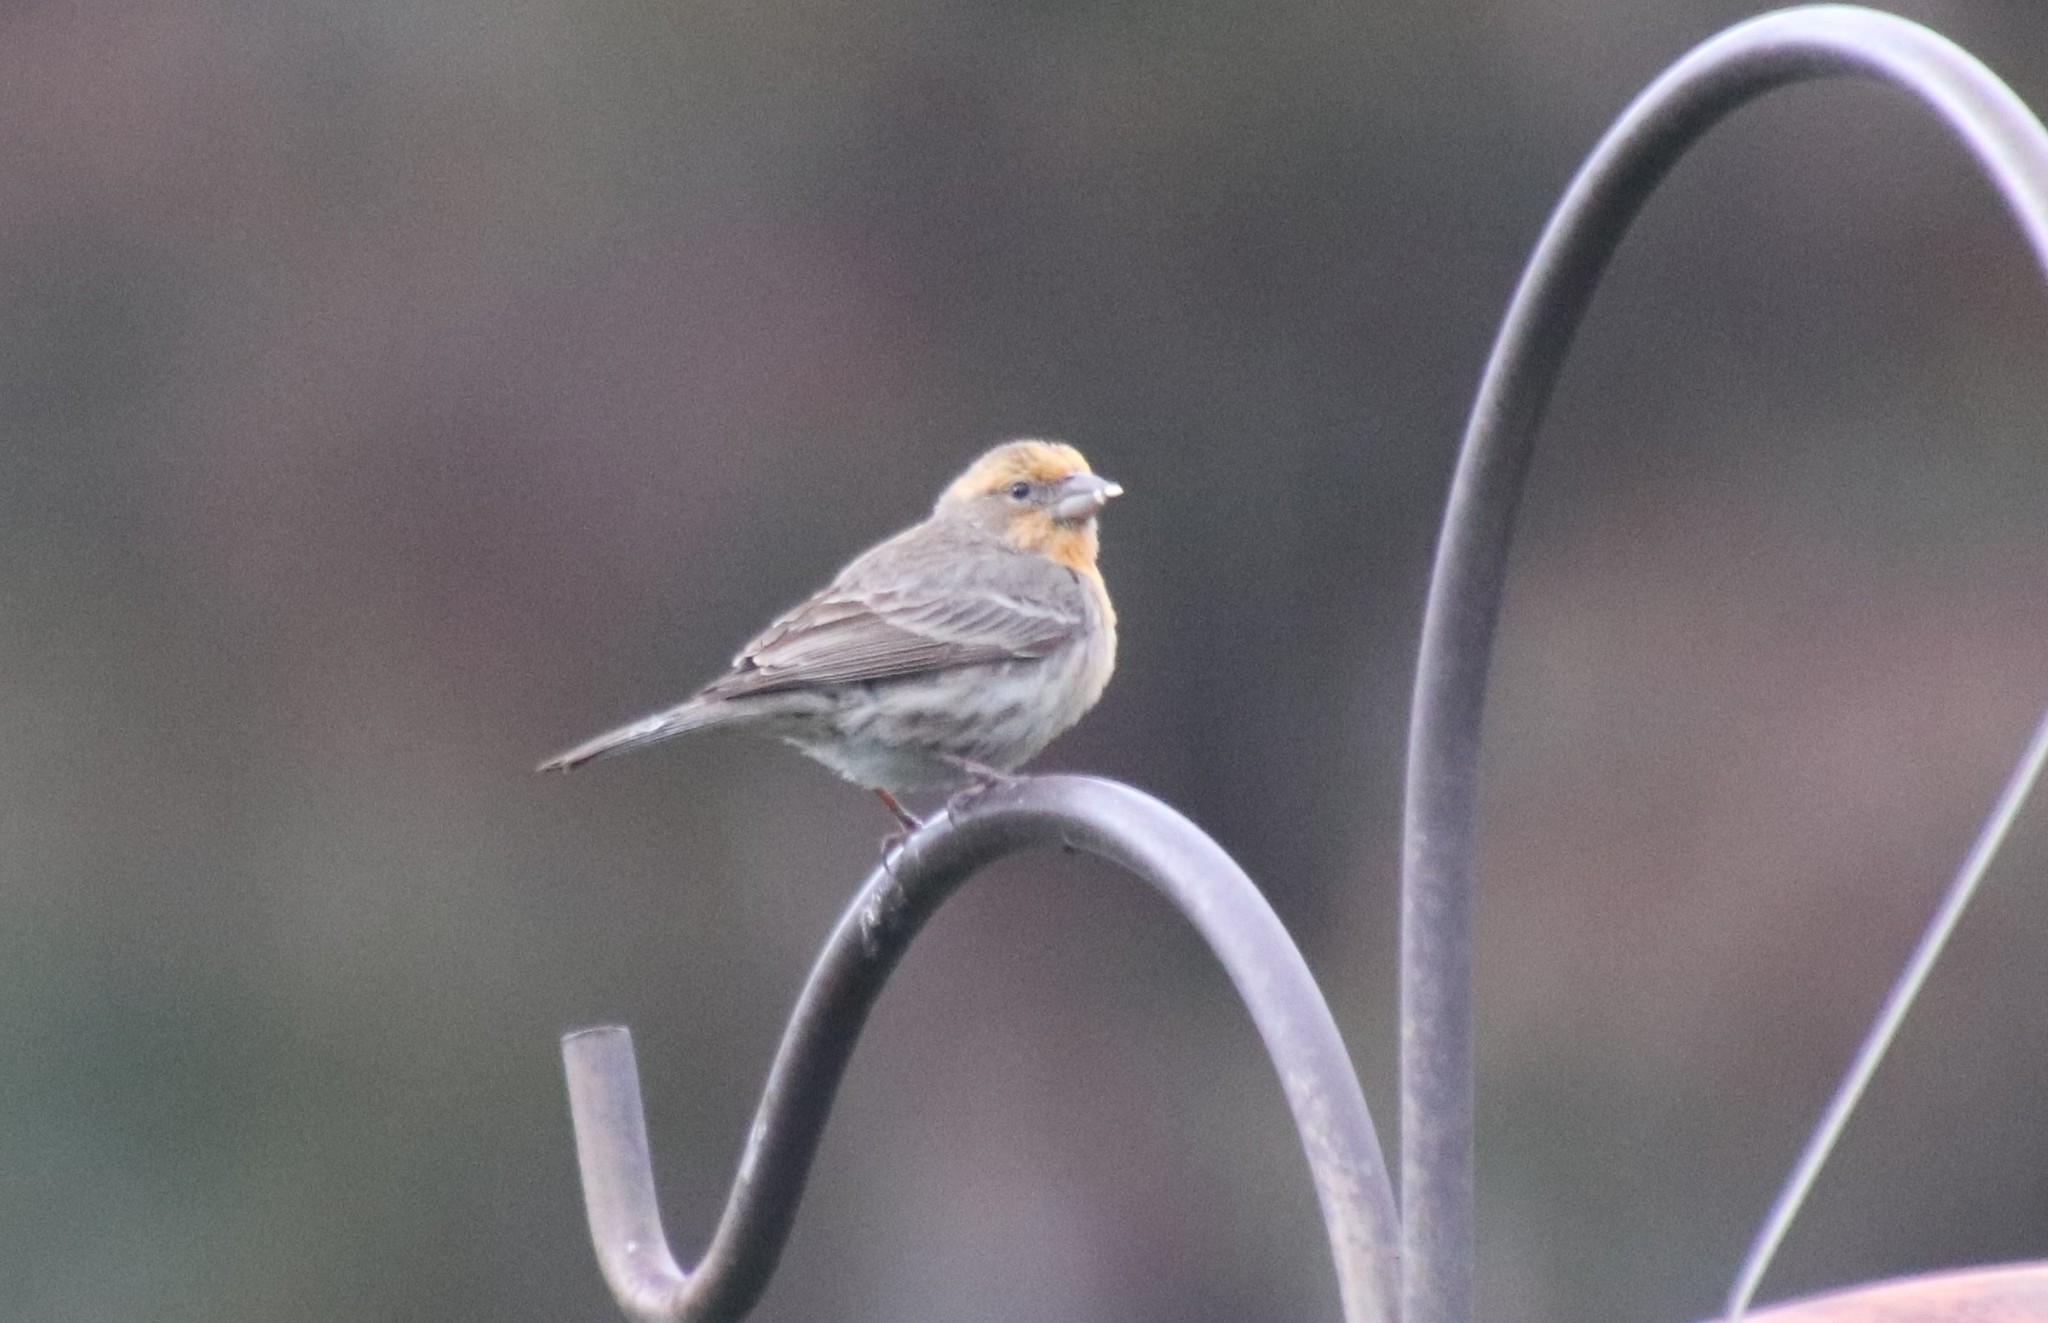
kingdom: Animalia
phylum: Chordata
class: Aves
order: Passeriformes
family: Fringillidae
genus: Haemorhous
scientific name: Haemorhous mexicanus
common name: House finch
